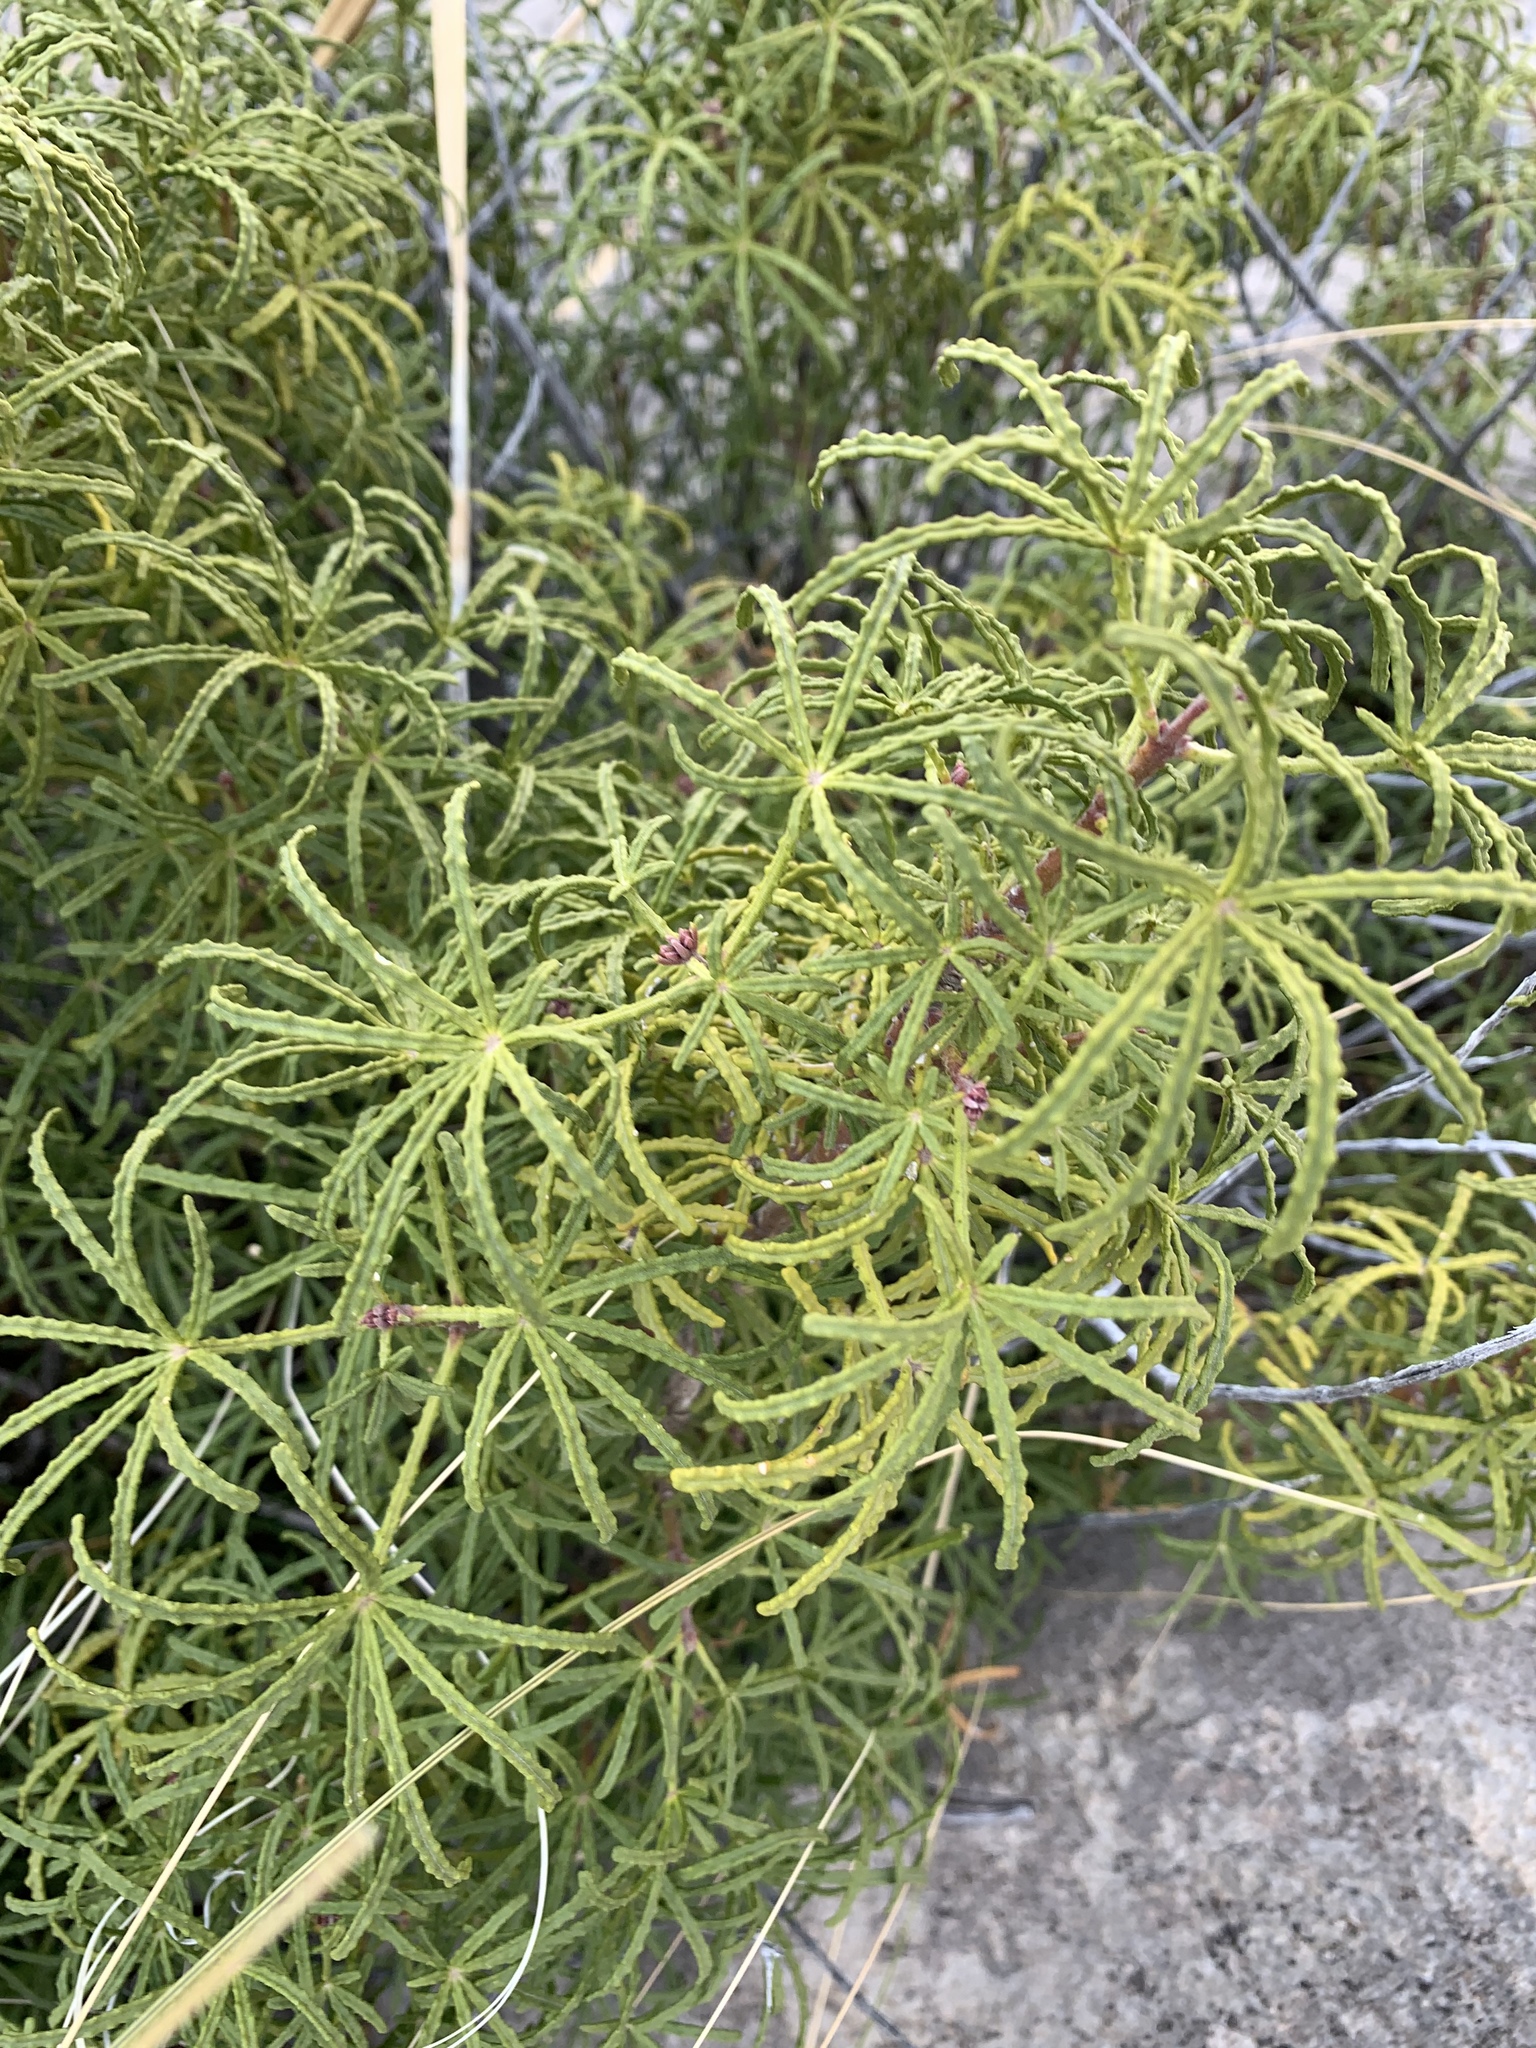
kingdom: Plantae
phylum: Tracheophyta
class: Magnoliopsida
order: Sapindales
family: Rutaceae
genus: Choisya
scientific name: Choisya dumosa
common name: Mexican-orange
